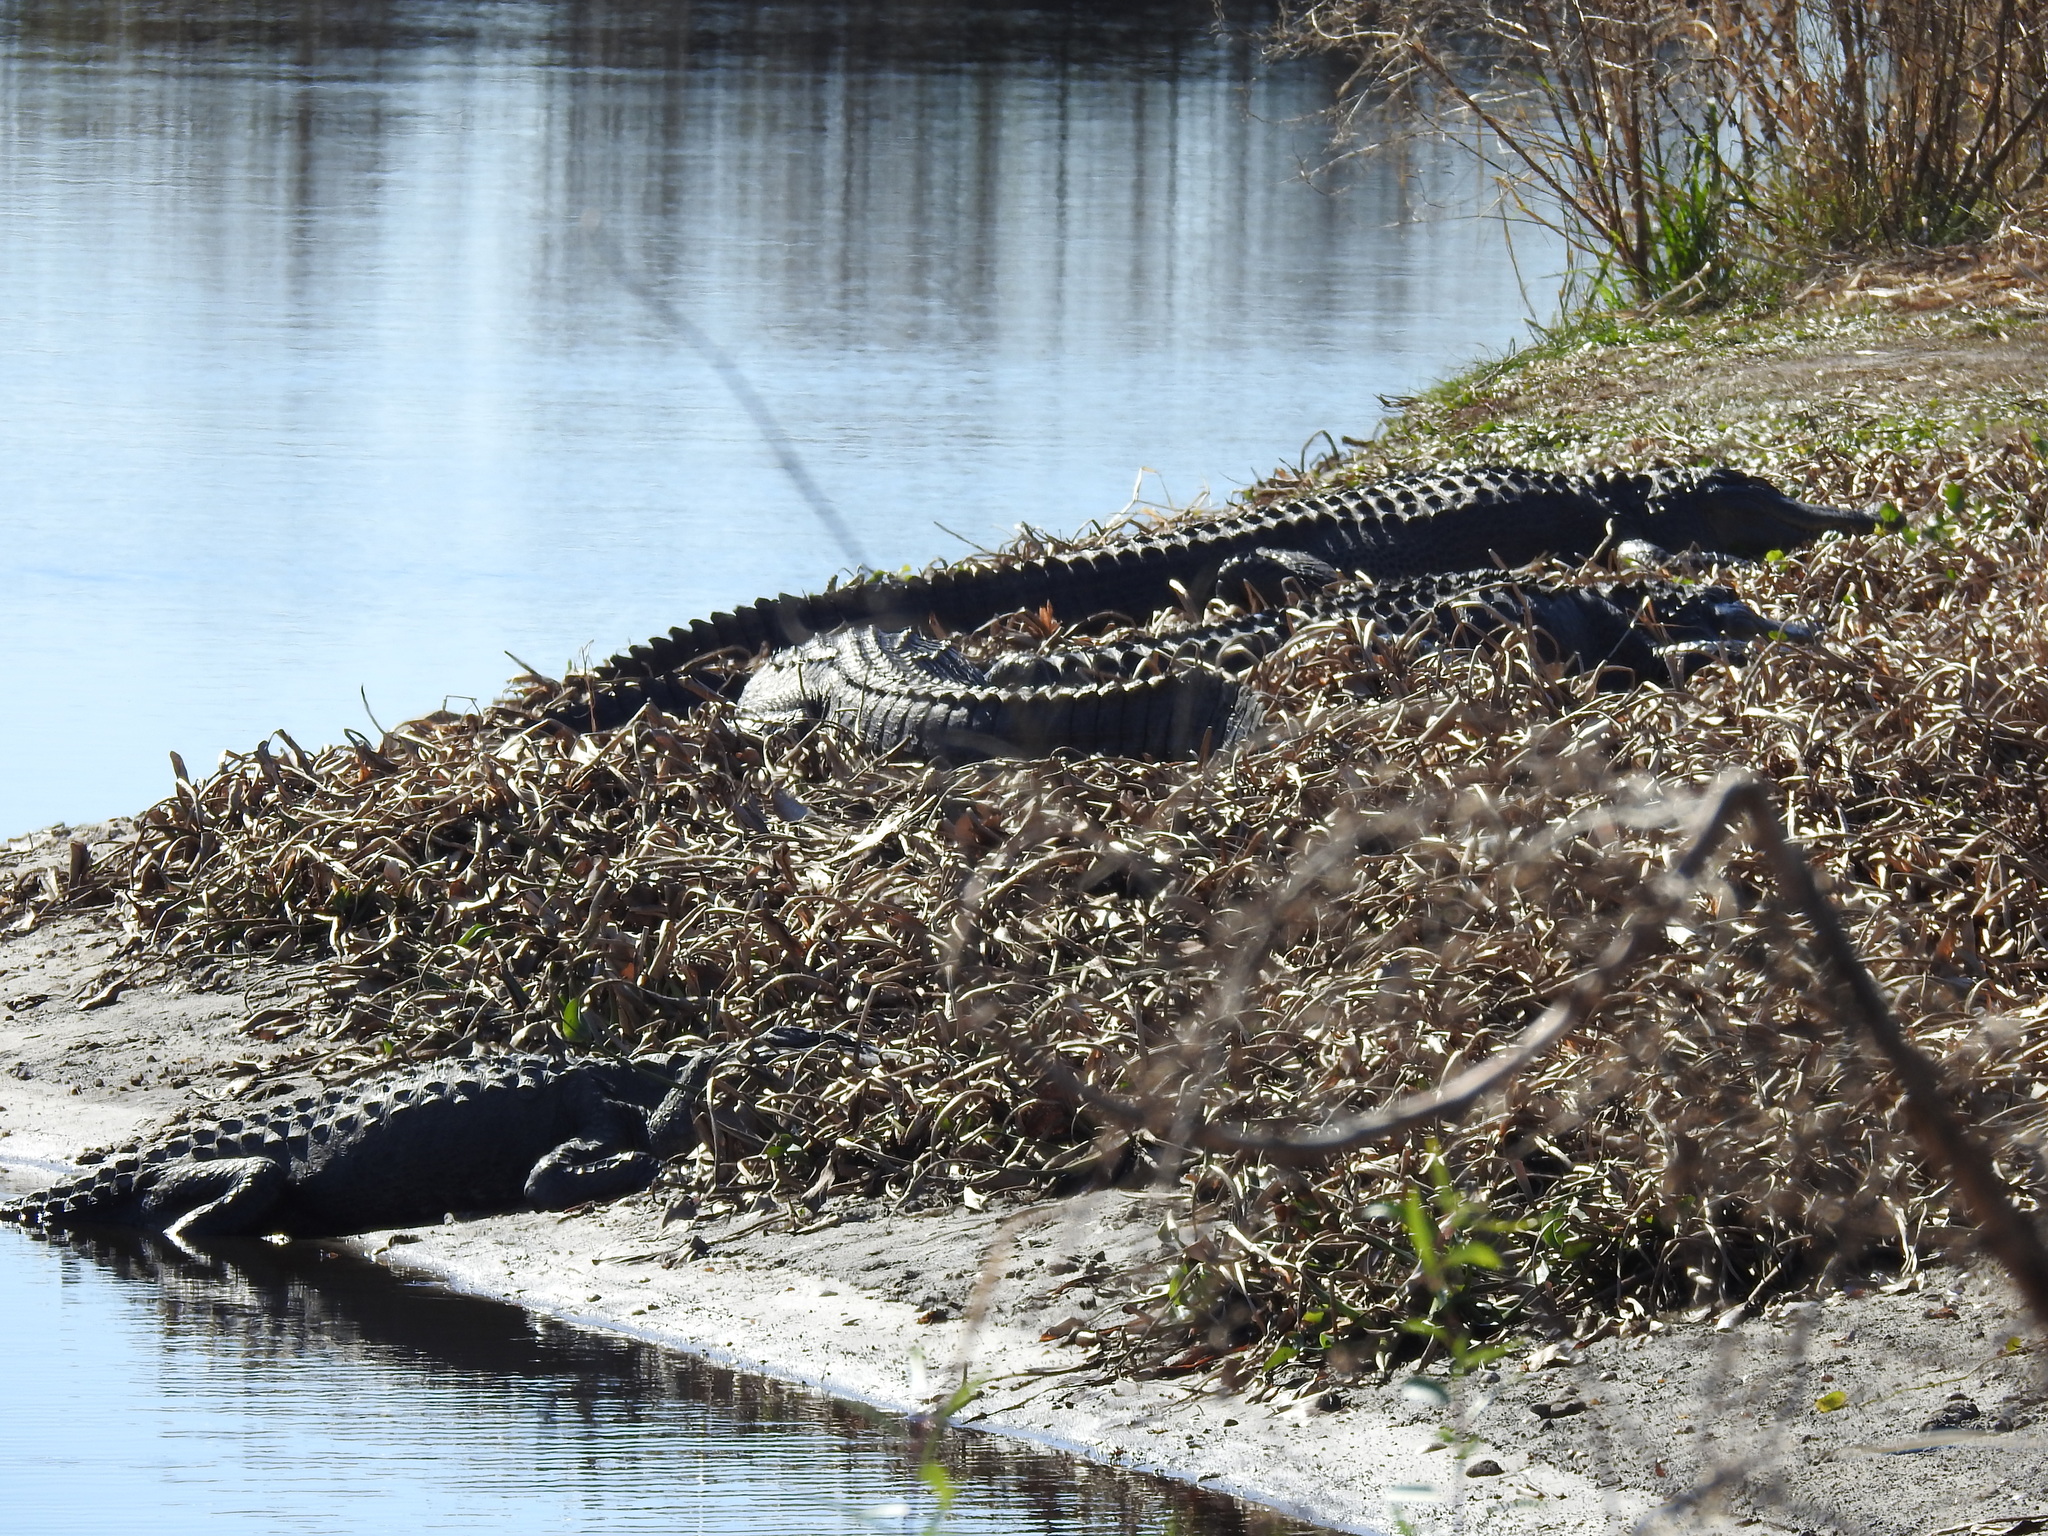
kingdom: Animalia
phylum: Chordata
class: Crocodylia
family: Alligatoridae
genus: Alligator
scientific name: Alligator mississippiensis
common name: American alligator
